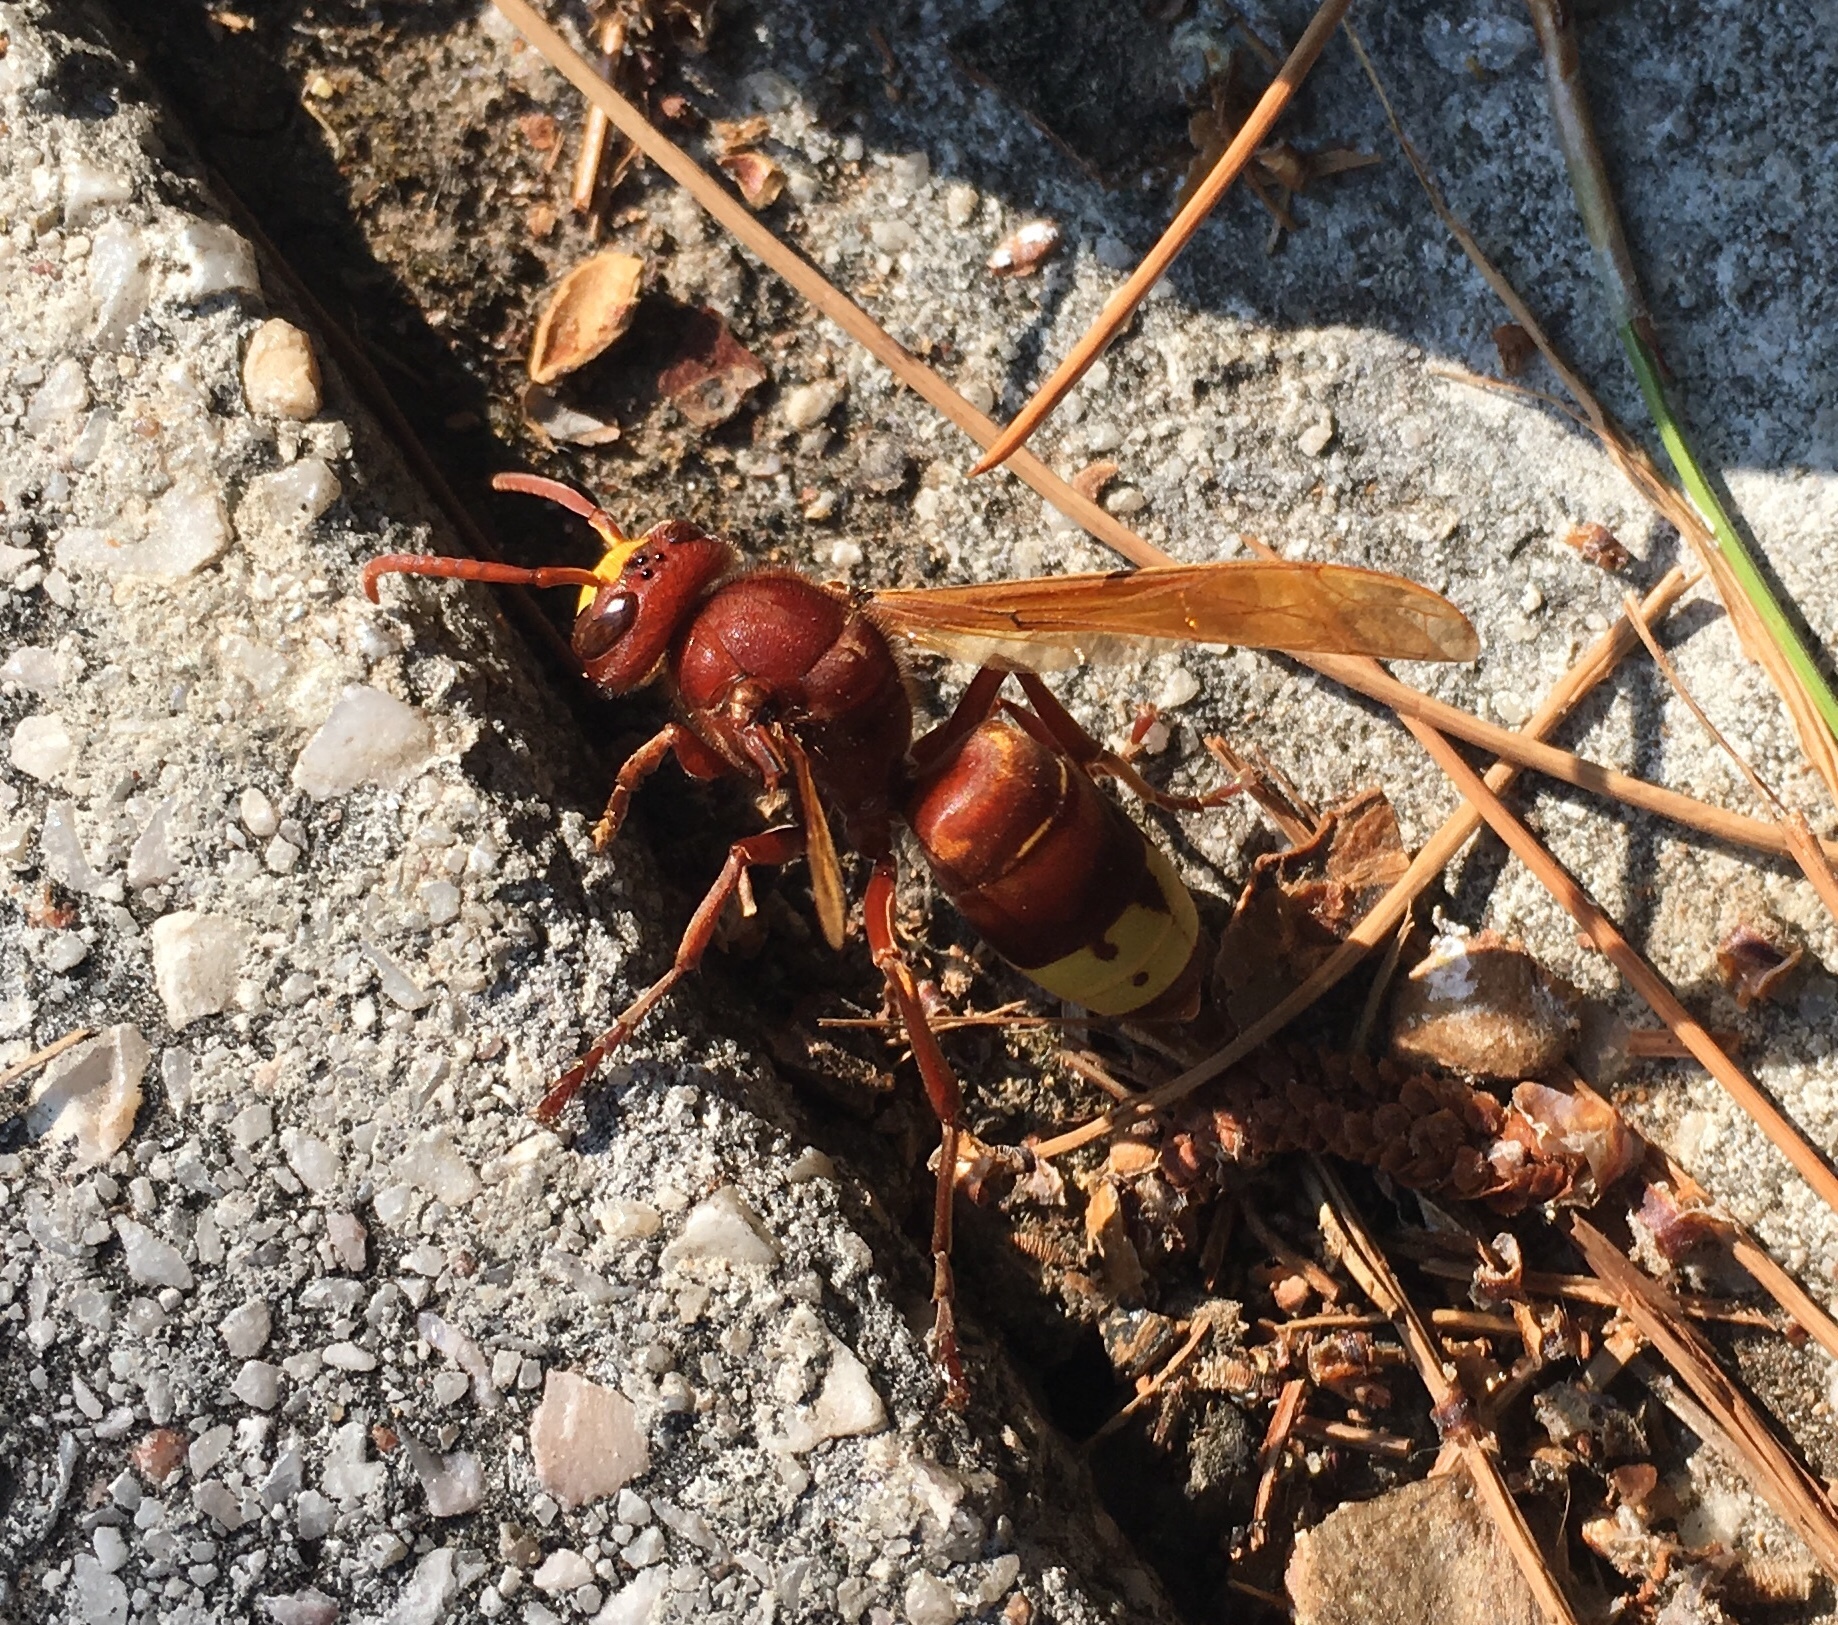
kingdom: Animalia
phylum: Arthropoda
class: Insecta
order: Hymenoptera
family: Vespidae
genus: Vespa
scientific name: Vespa orientalis
